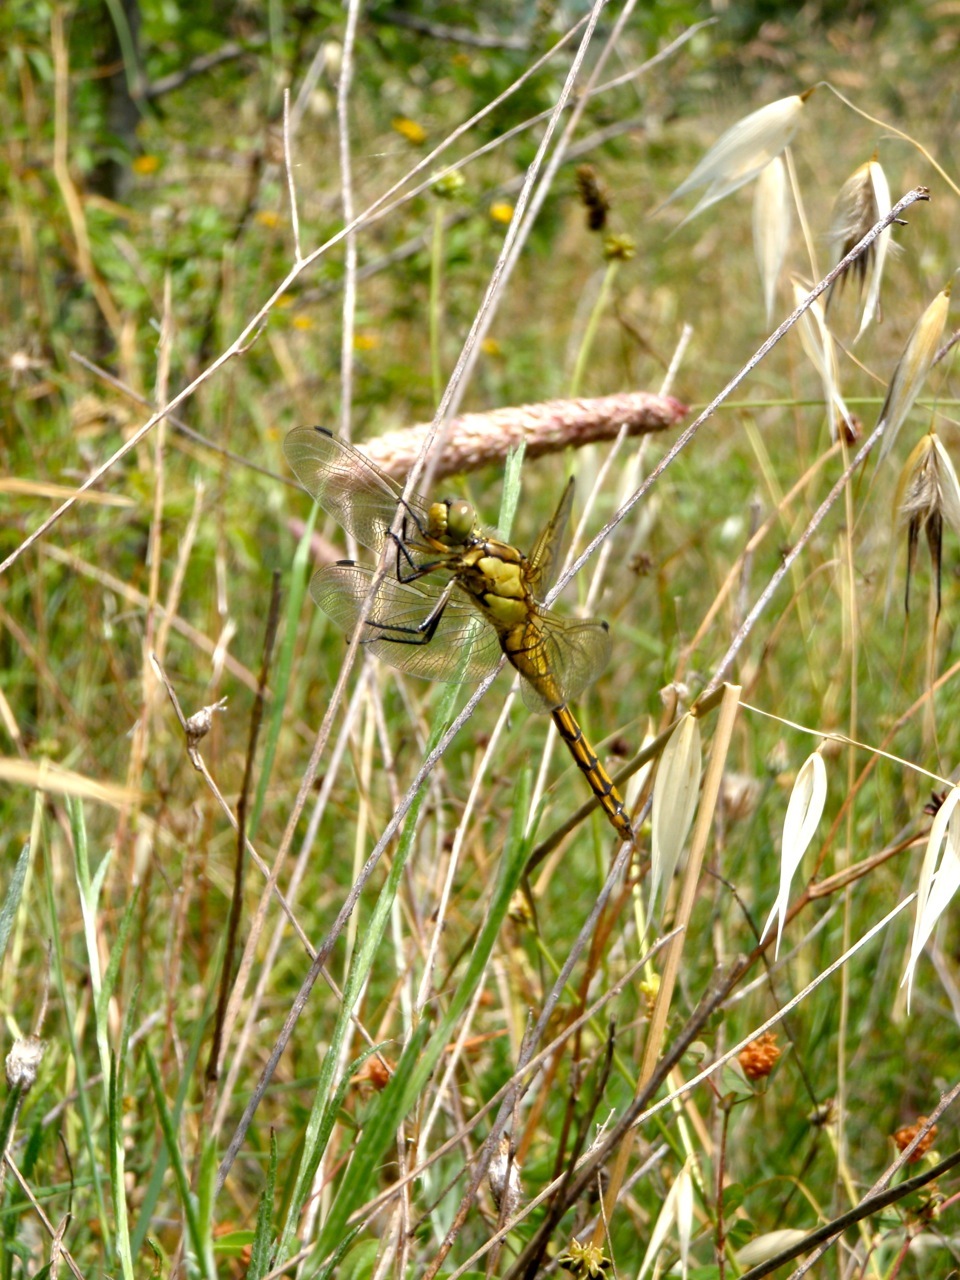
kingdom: Animalia
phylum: Arthropoda
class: Insecta
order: Odonata
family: Libellulidae
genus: Orthetrum
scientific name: Orthetrum cancellatum
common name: Black-tailed skimmer
